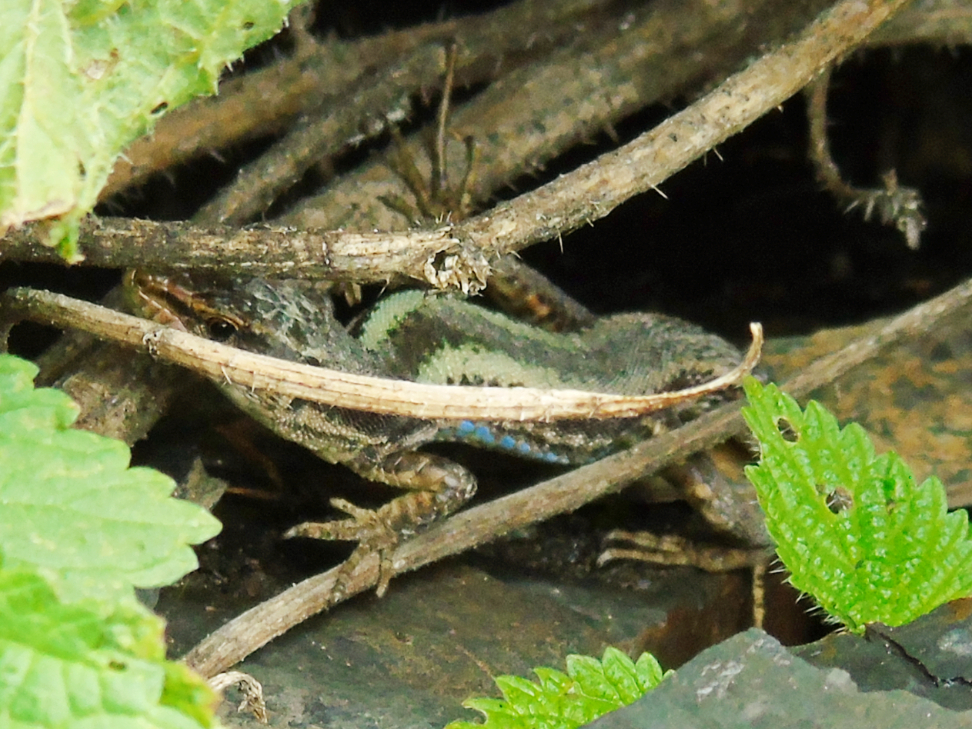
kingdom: Animalia
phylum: Chordata
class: Squamata
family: Lacertidae
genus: Darevskia
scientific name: Darevskia caucasica
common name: Caucasian llzard
